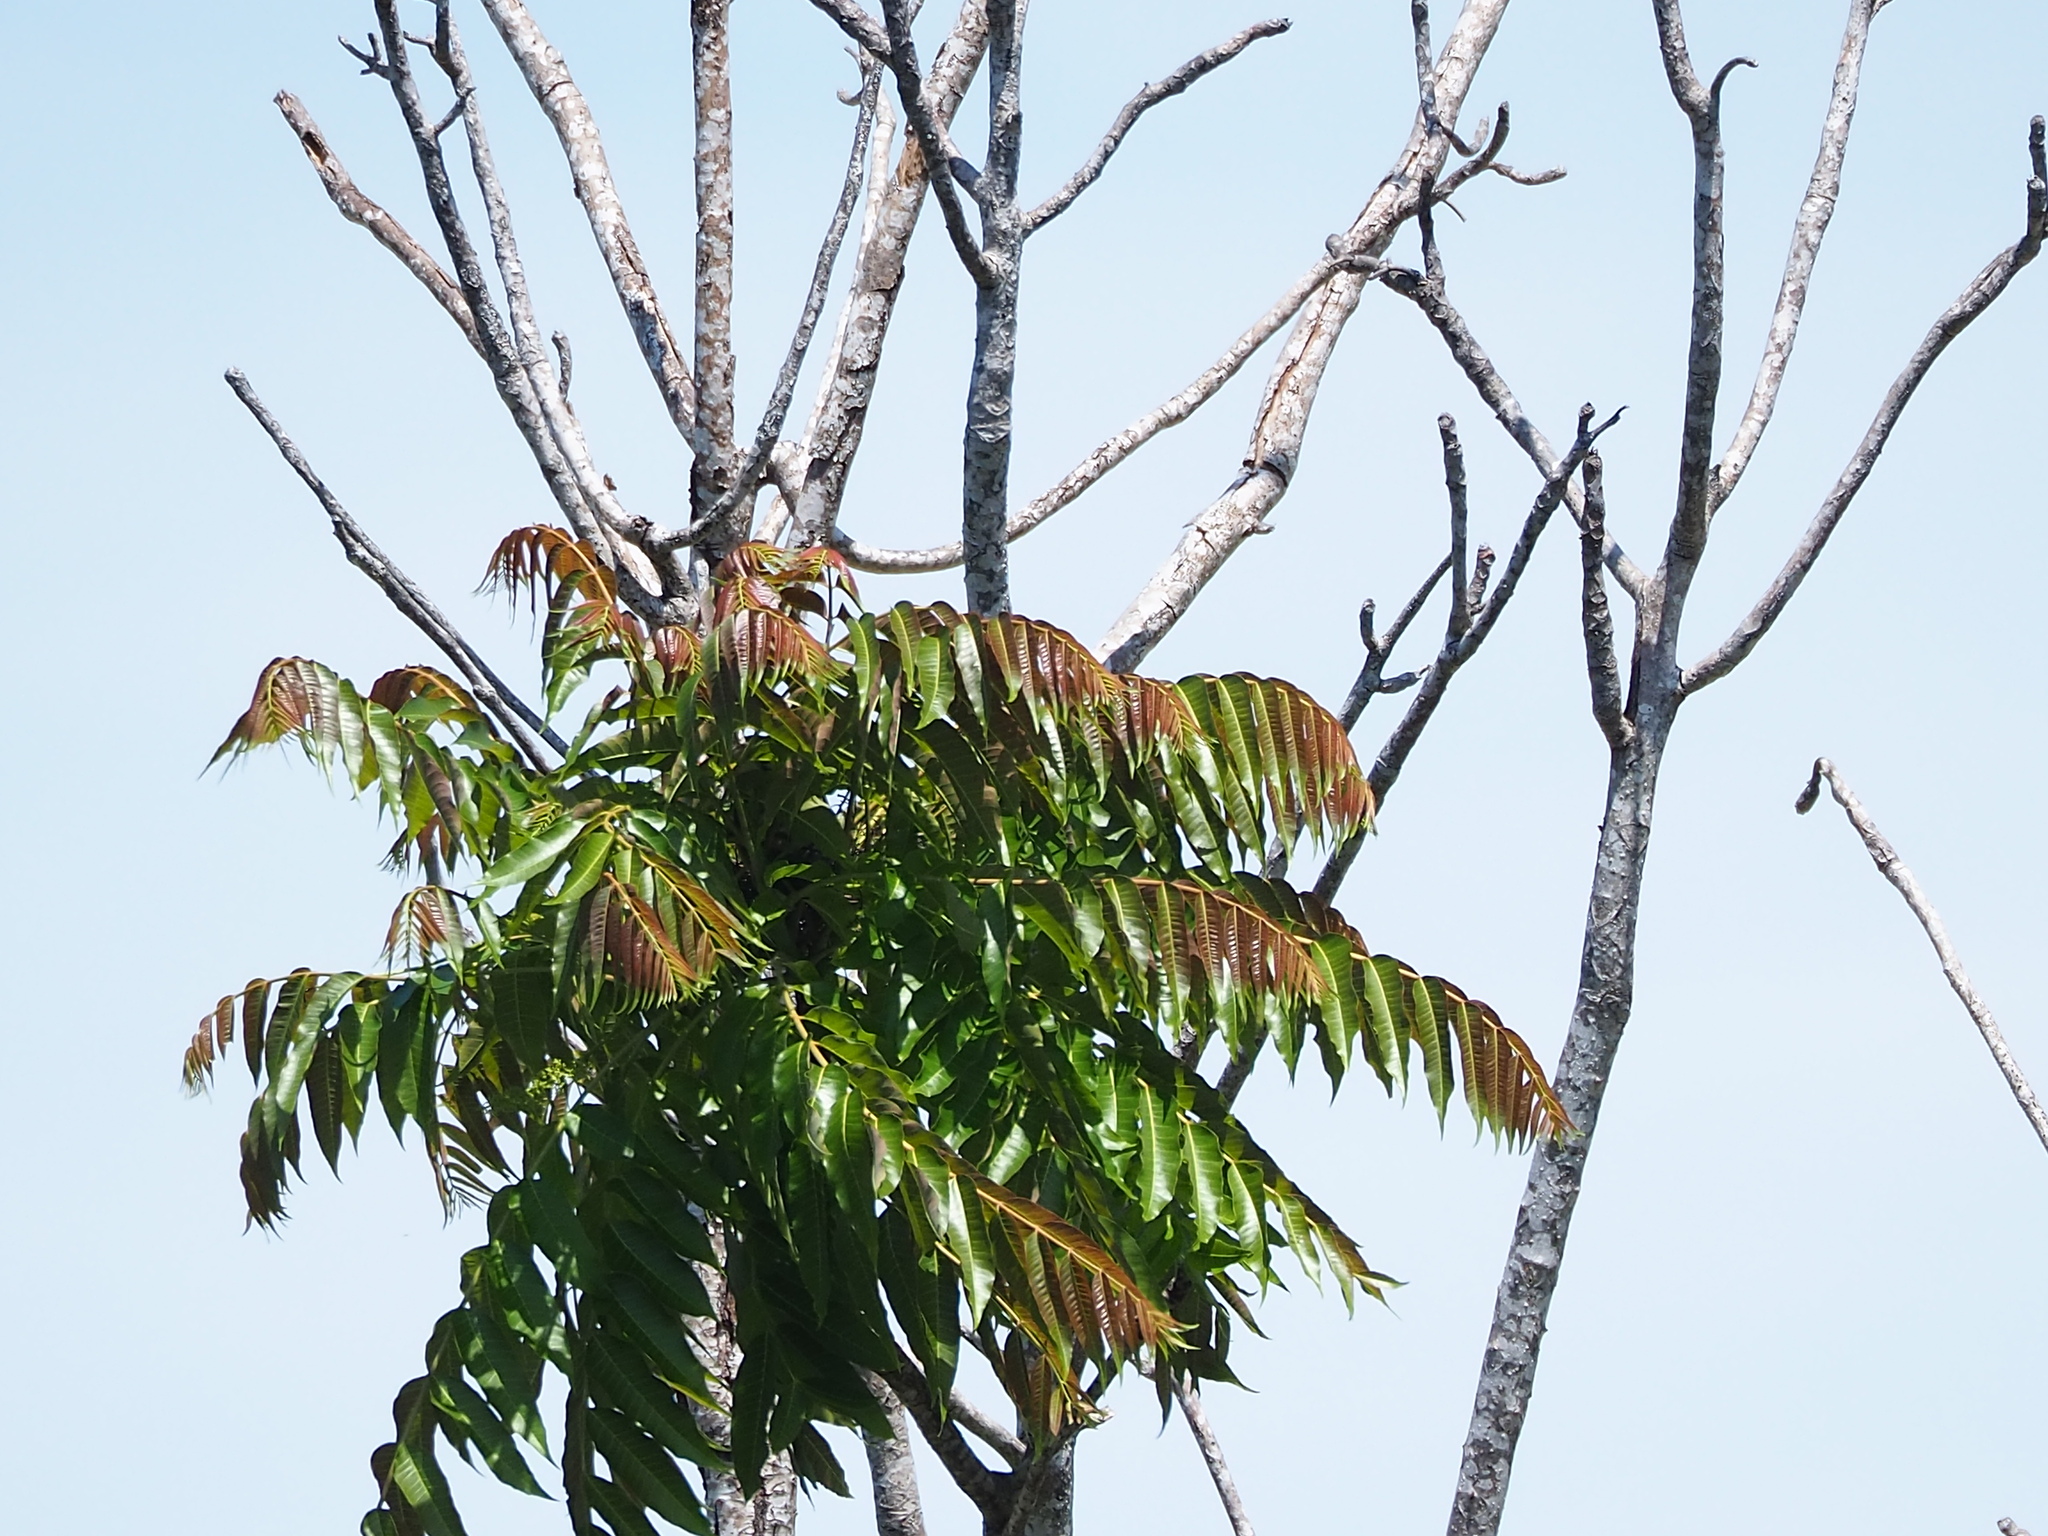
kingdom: Plantae
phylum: Tracheophyta
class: Magnoliopsida
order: Sapindales
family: Meliaceae
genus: Toona
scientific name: Toona sinensis
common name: Red toon
